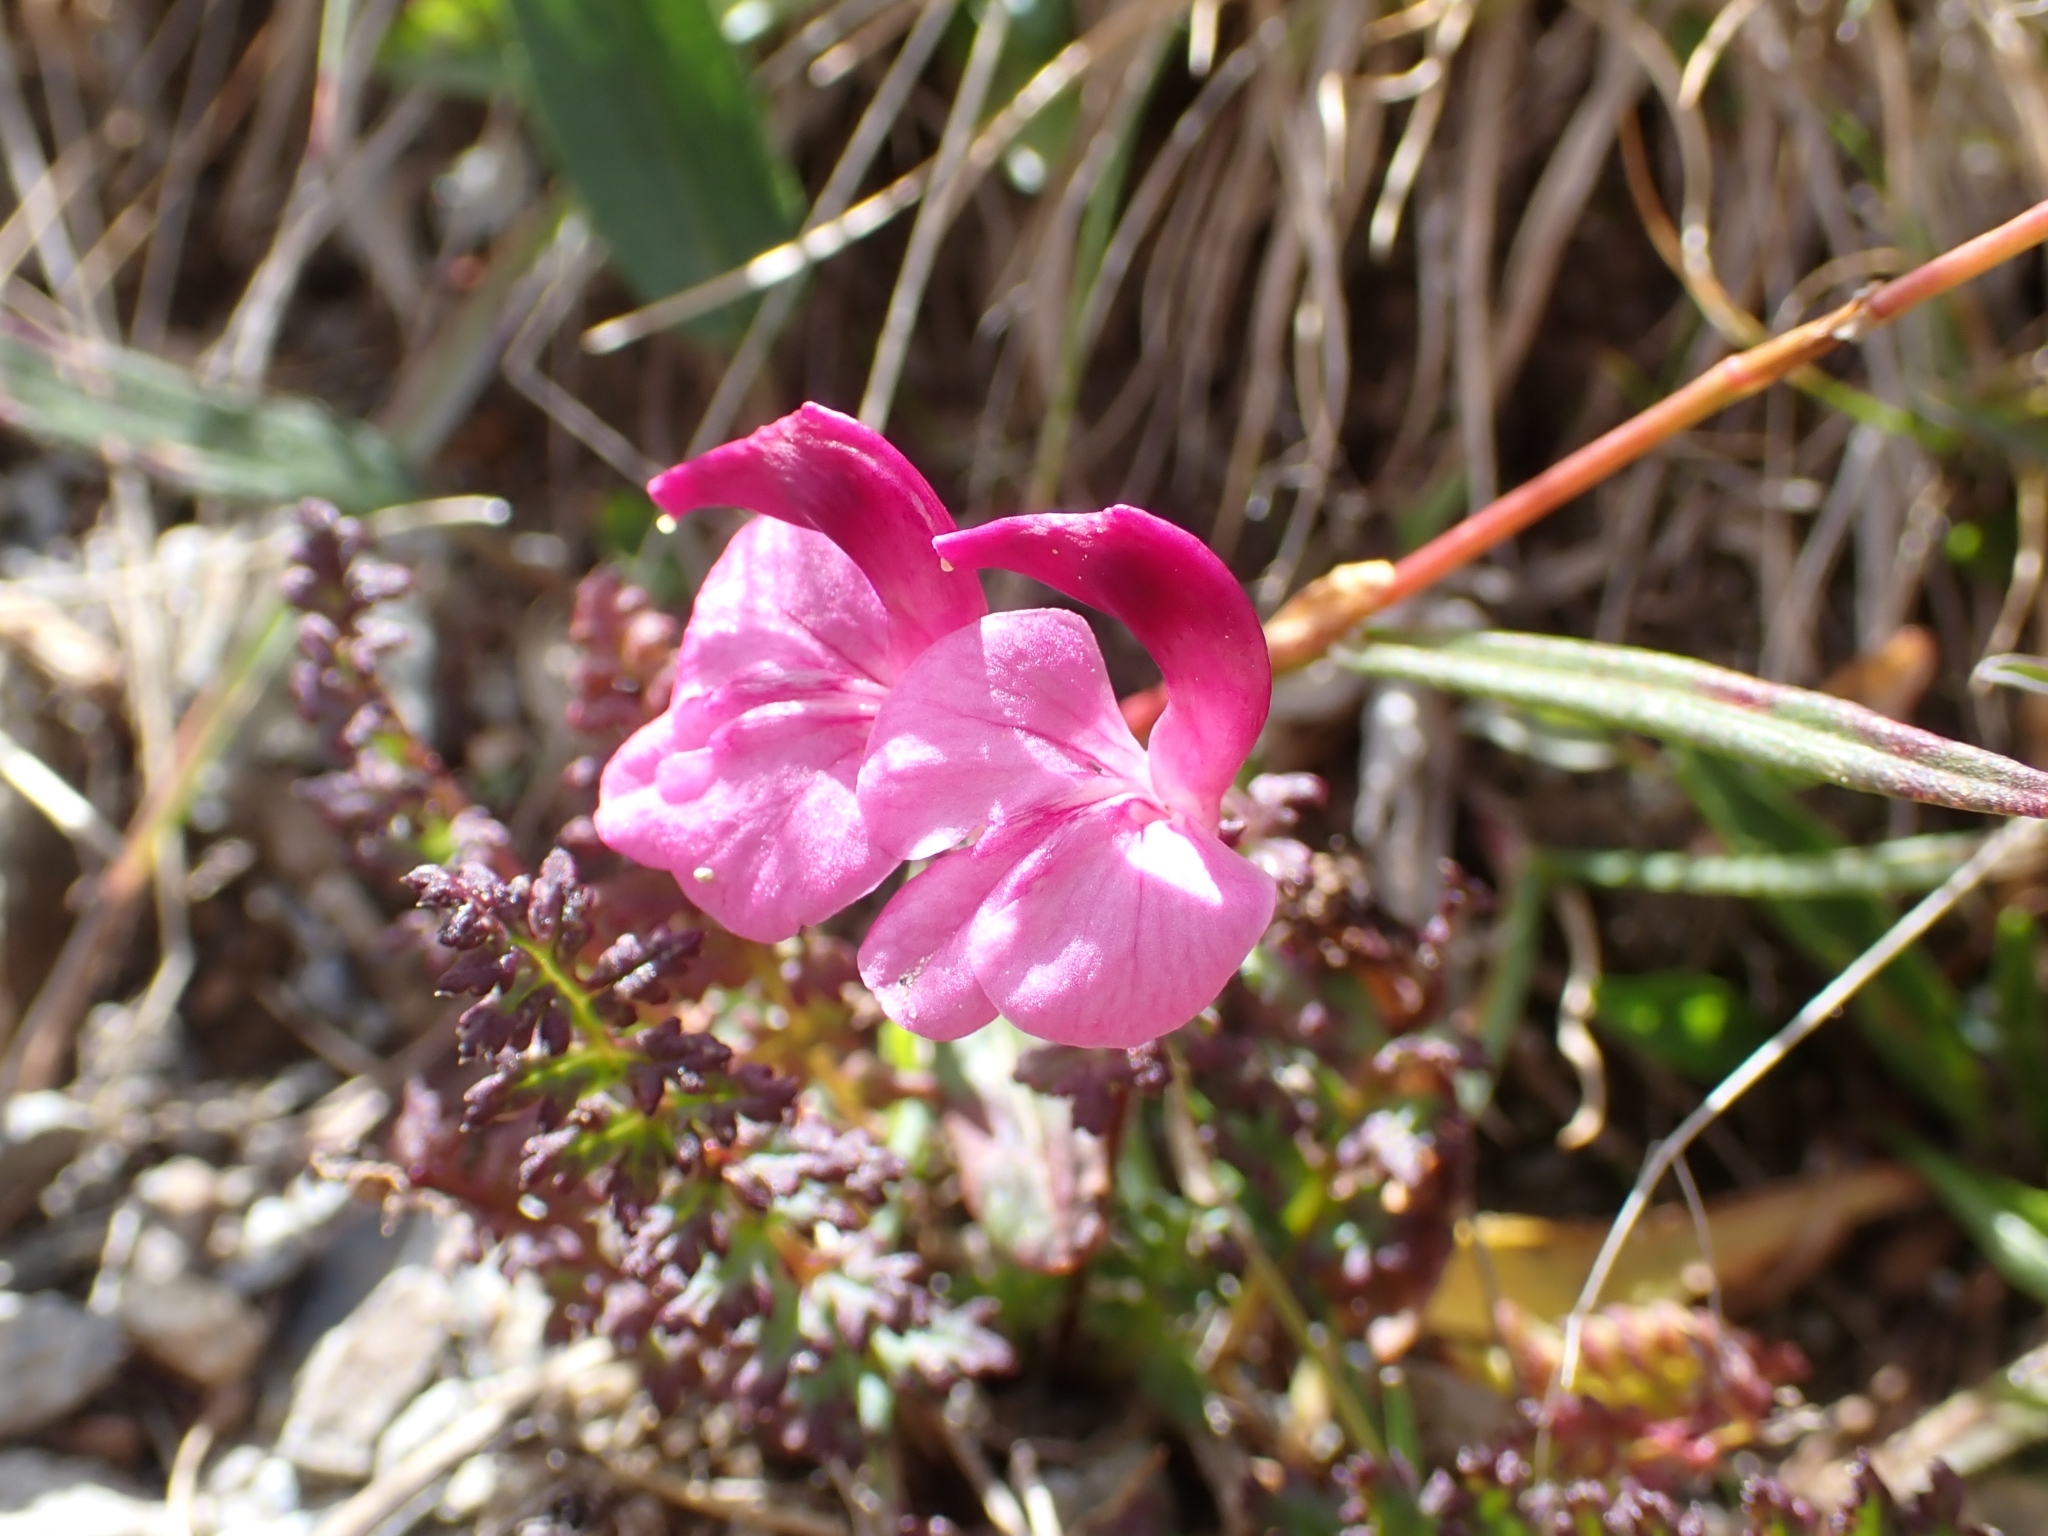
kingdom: Plantae
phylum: Tracheophyta
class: Magnoliopsida
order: Lamiales
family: Orobanchaceae
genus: Pedicularis
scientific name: Pedicularis kerneri
